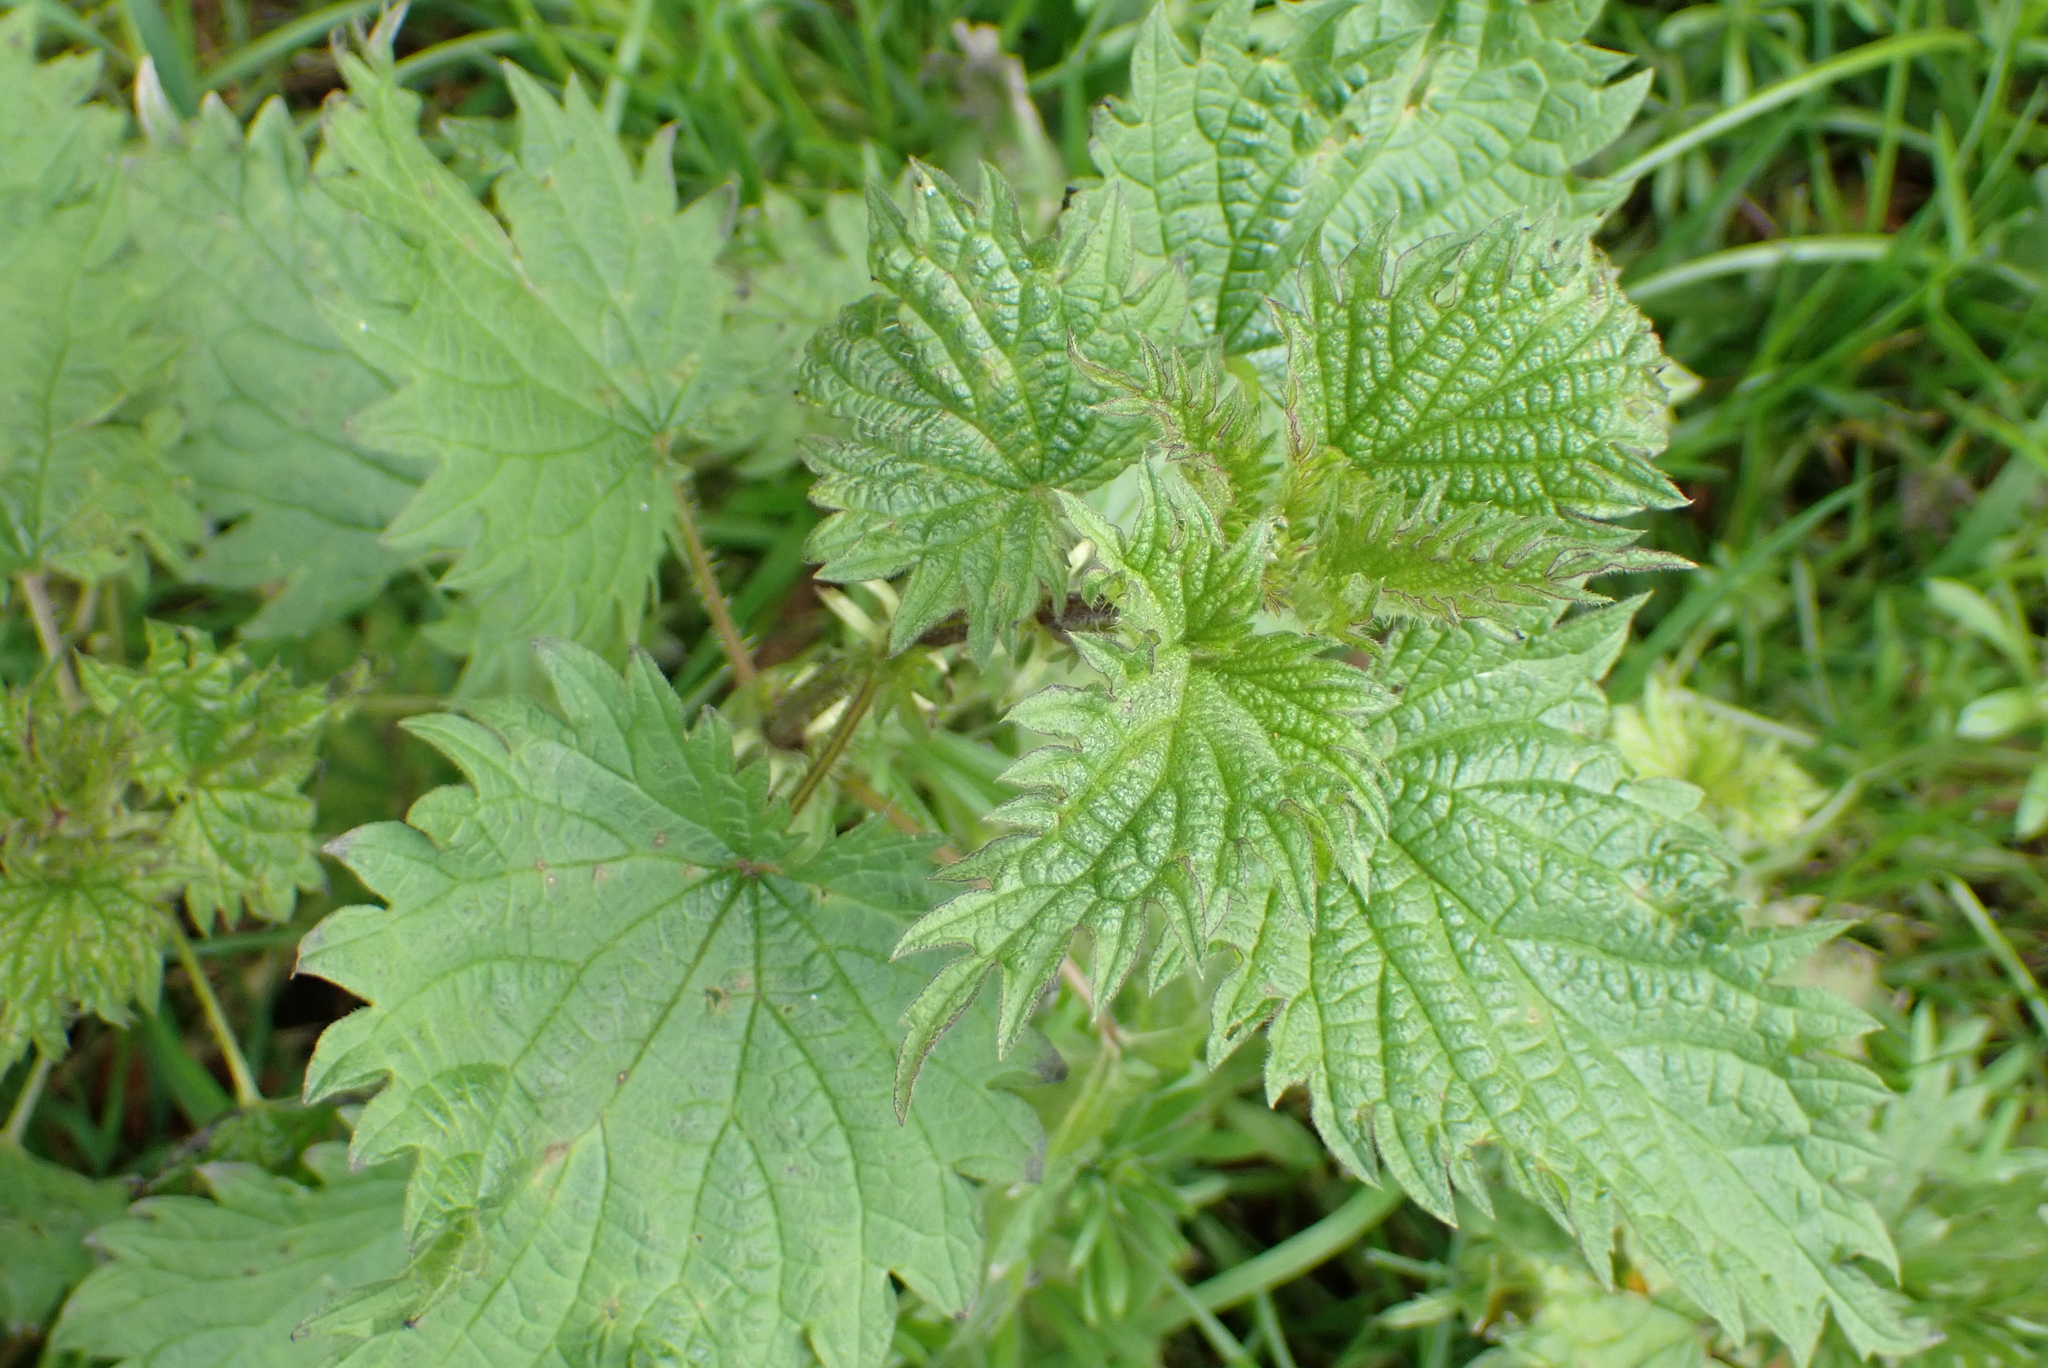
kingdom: Plantae
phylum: Tracheophyta
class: Magnoliopsida
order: Rosales
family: Urticaceae
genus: Urtica
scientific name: Urtica dioica
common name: Common nettle
